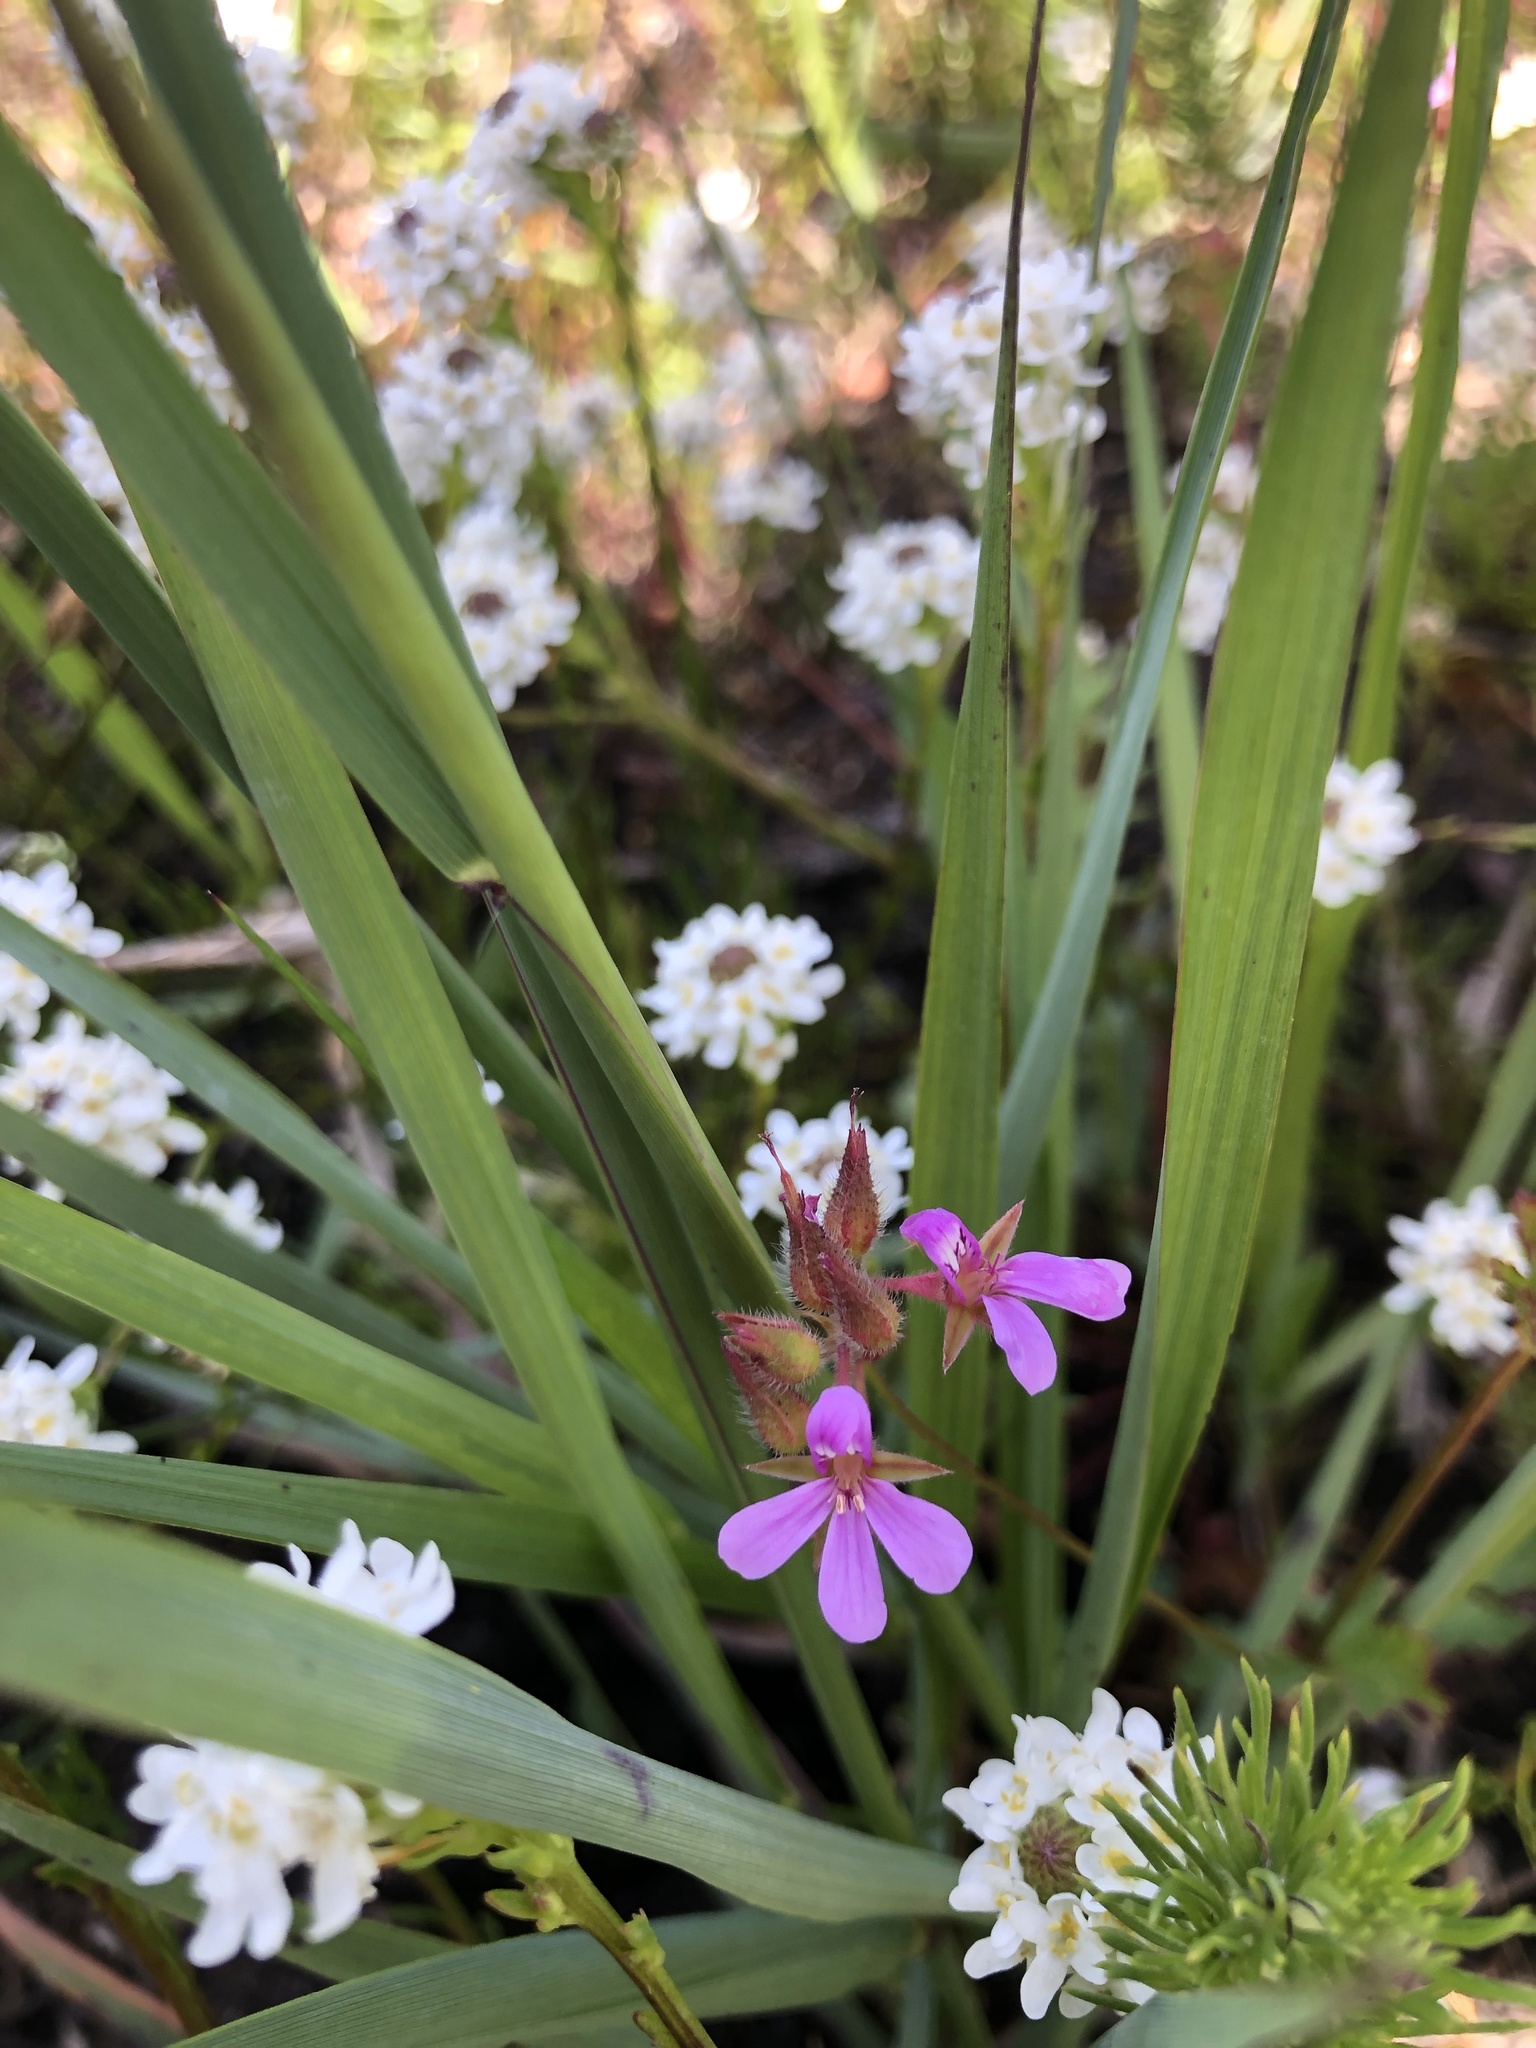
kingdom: Plantae
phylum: Tracheophyta
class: Magnoliopsida
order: Geraniales
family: Geraniaceae
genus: Pelargonium
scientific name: Pelargonium grossularioides
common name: Gooseberry geranium
